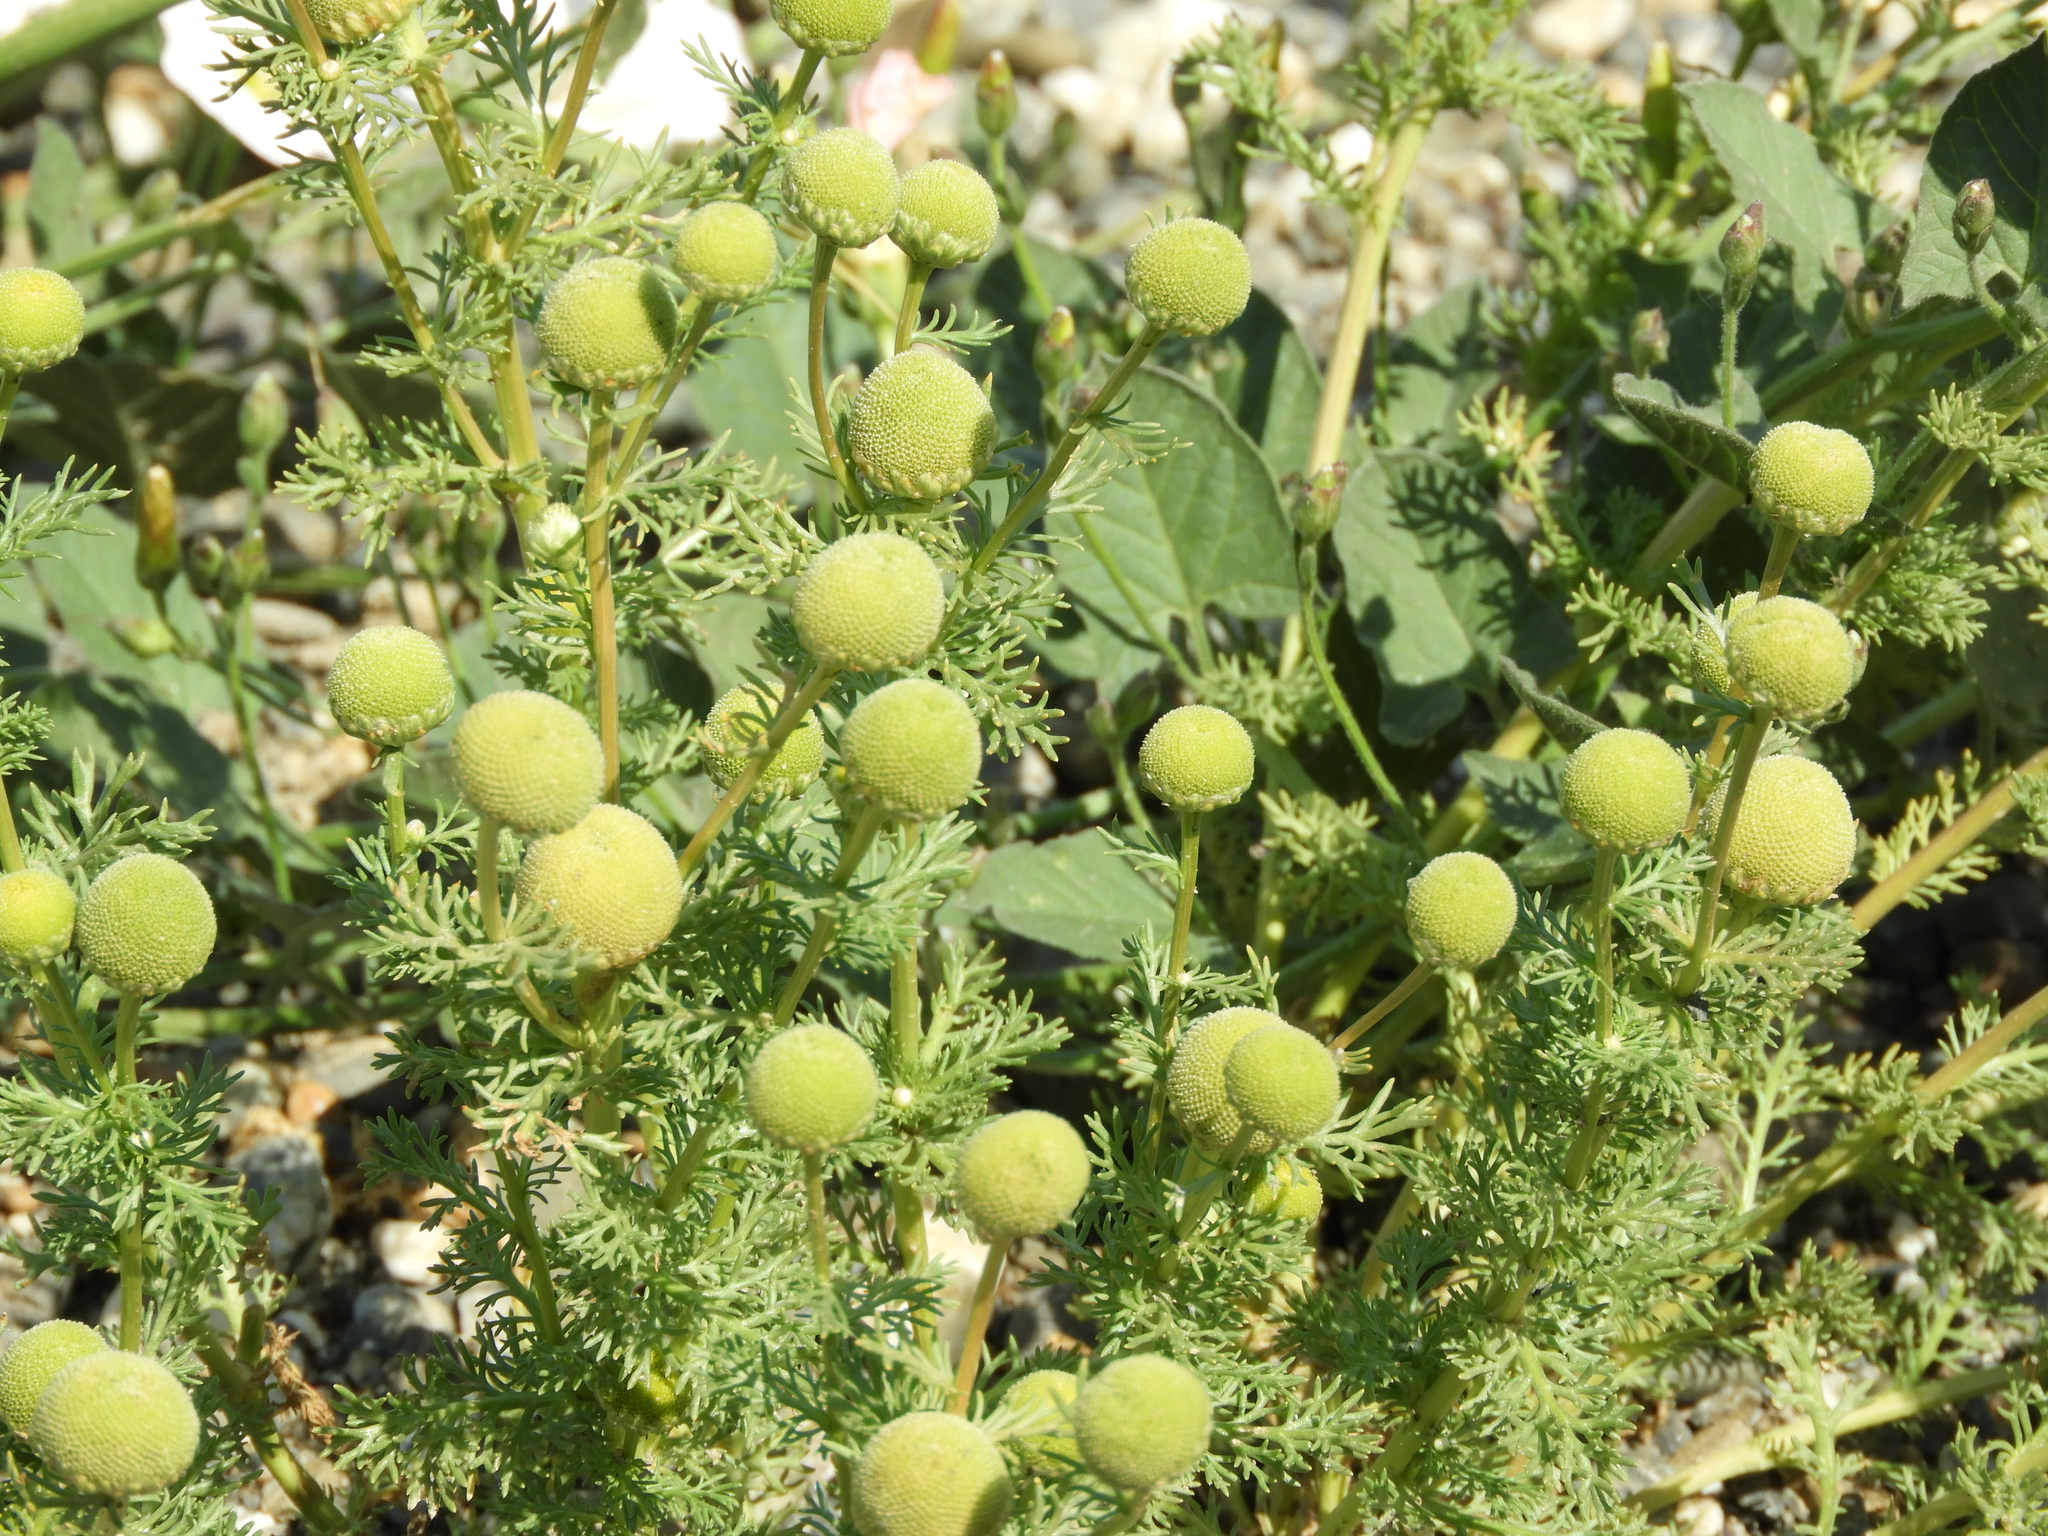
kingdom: Plantae
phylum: Tracheophyta
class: Magnoliopsida
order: Asterales
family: Asteraceae
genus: Matricaria
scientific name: Matricaria discoidea
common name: Disc mayweed
